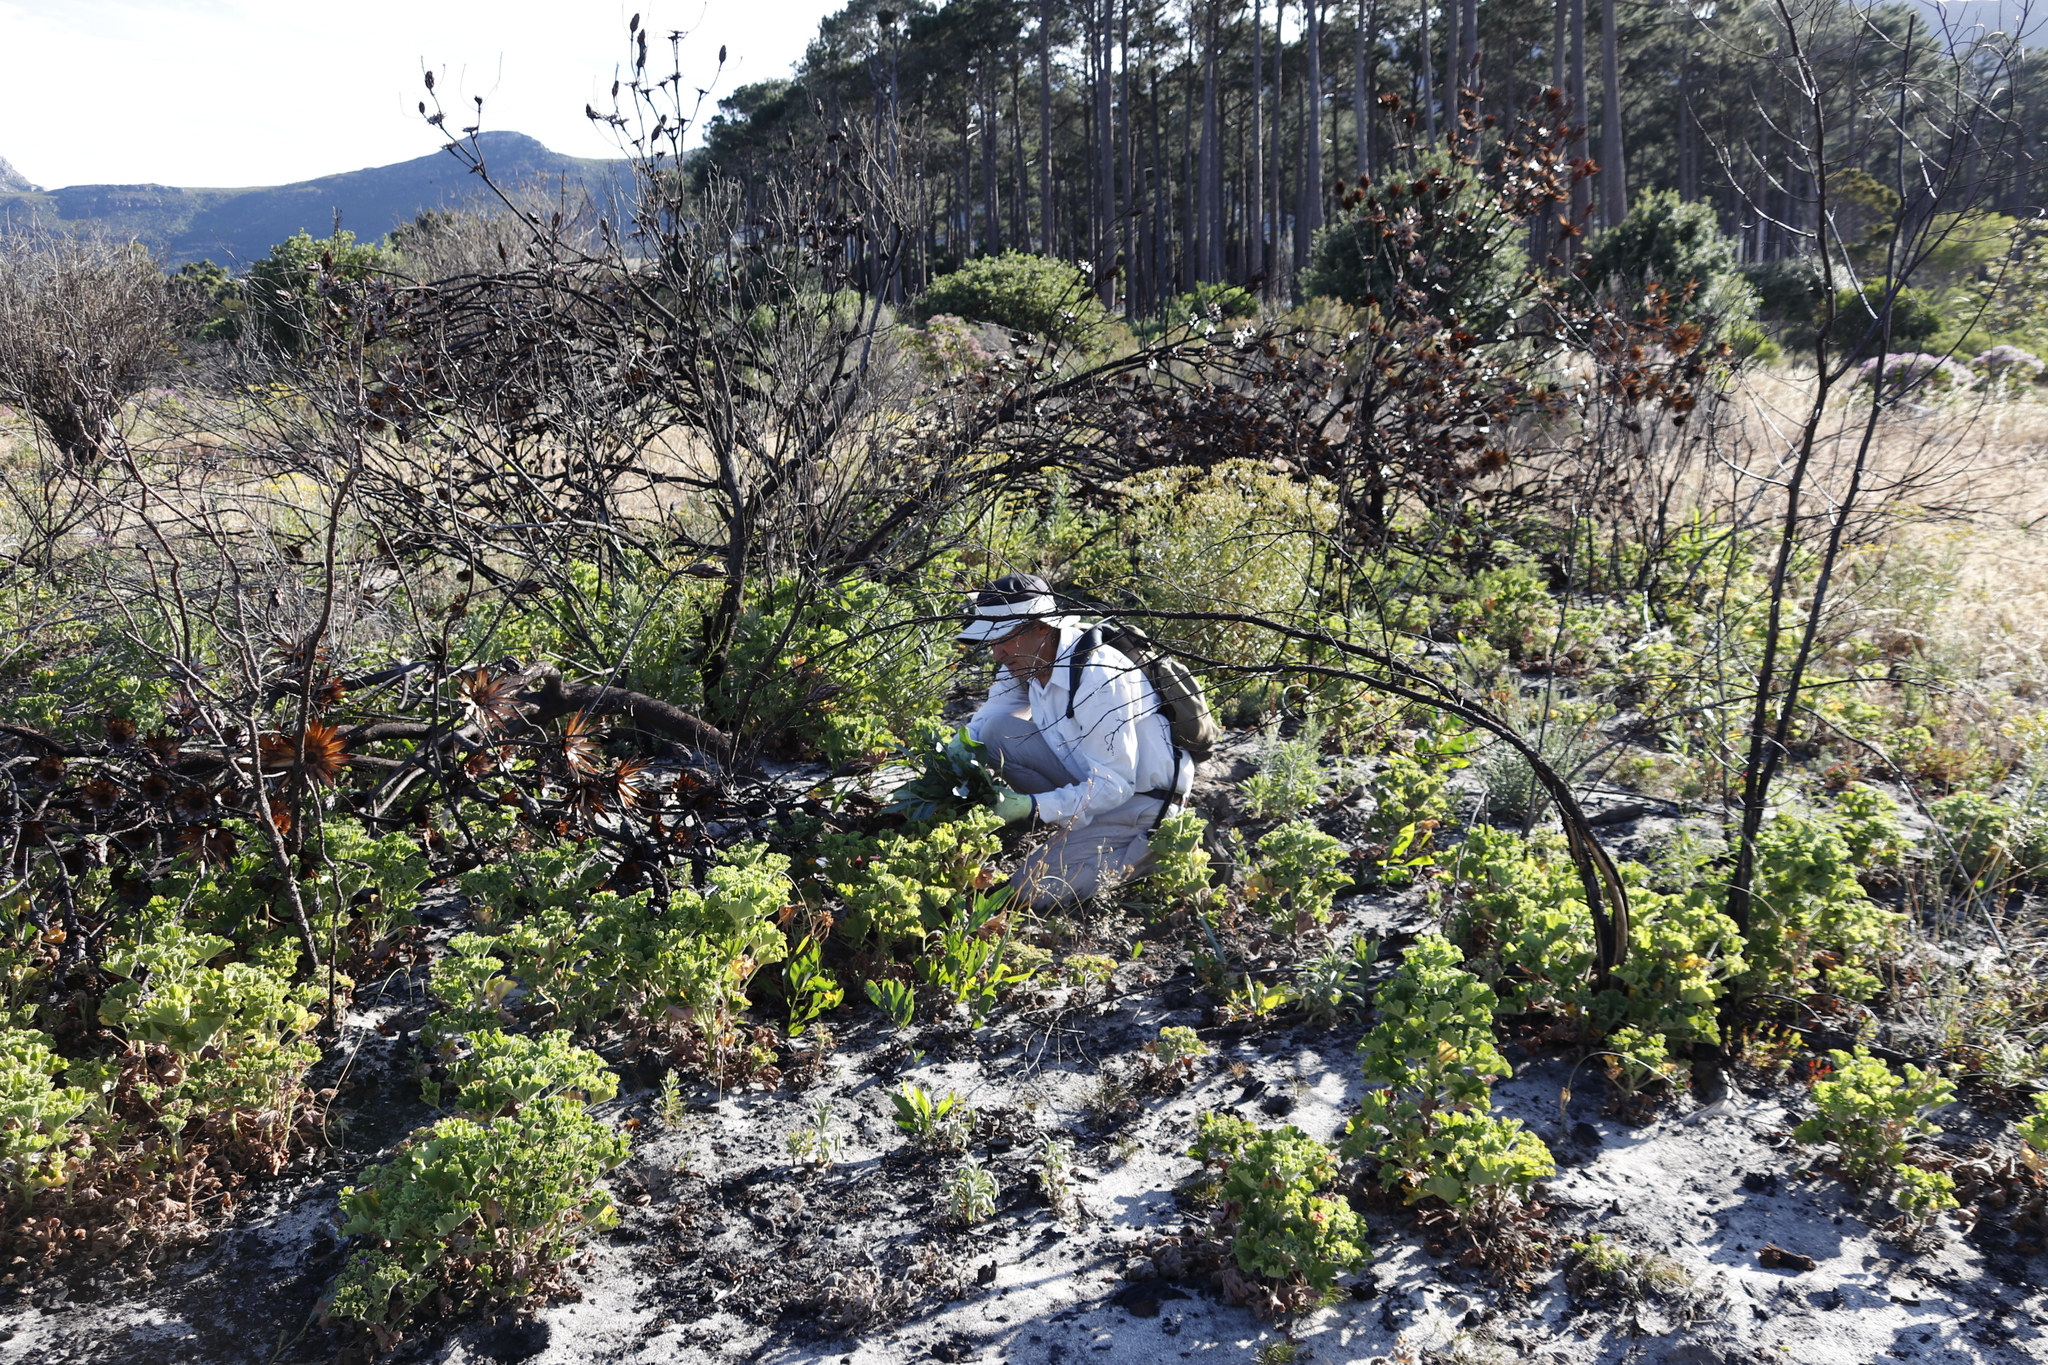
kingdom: Plantae
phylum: Tracheophyta
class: Magnoliopsida
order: Geraniales
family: Geraniaceae
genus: Pelargonium
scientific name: Pelargonium cucullatum
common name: Tree pelargonium
